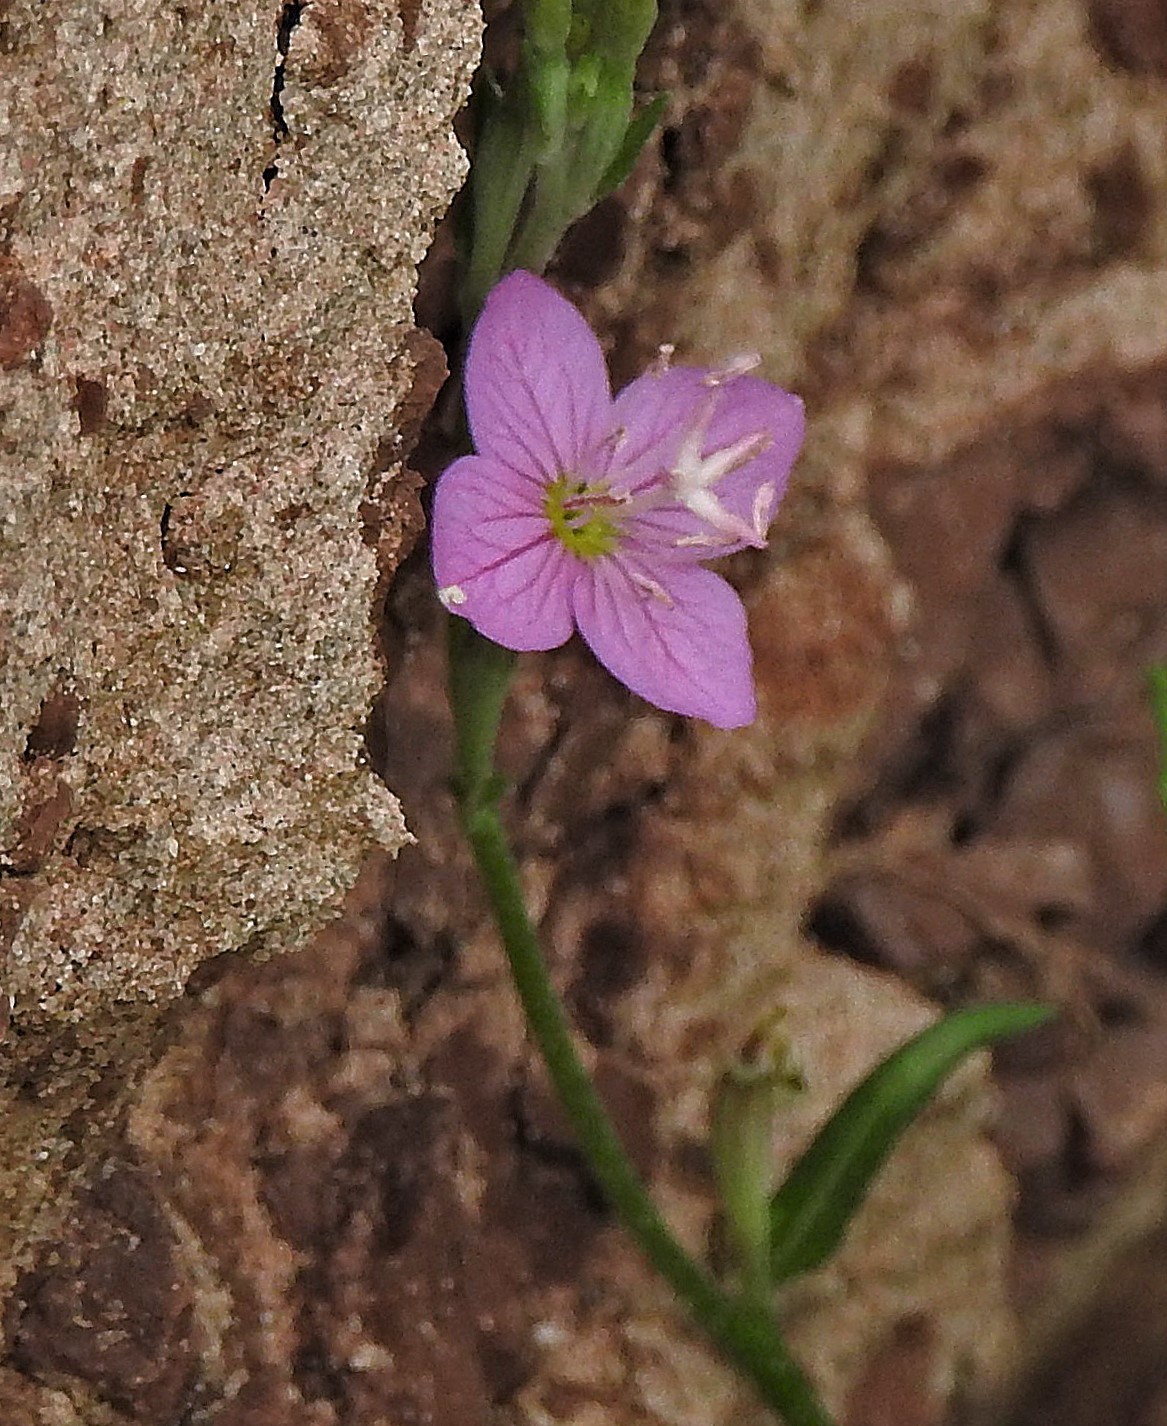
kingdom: Plantae
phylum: Tracheophyta
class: Magnoliopsida
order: Myrtales
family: Onagraceae
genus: Oenothera
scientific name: Oenothera rosea
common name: Rosy evening-primrose
